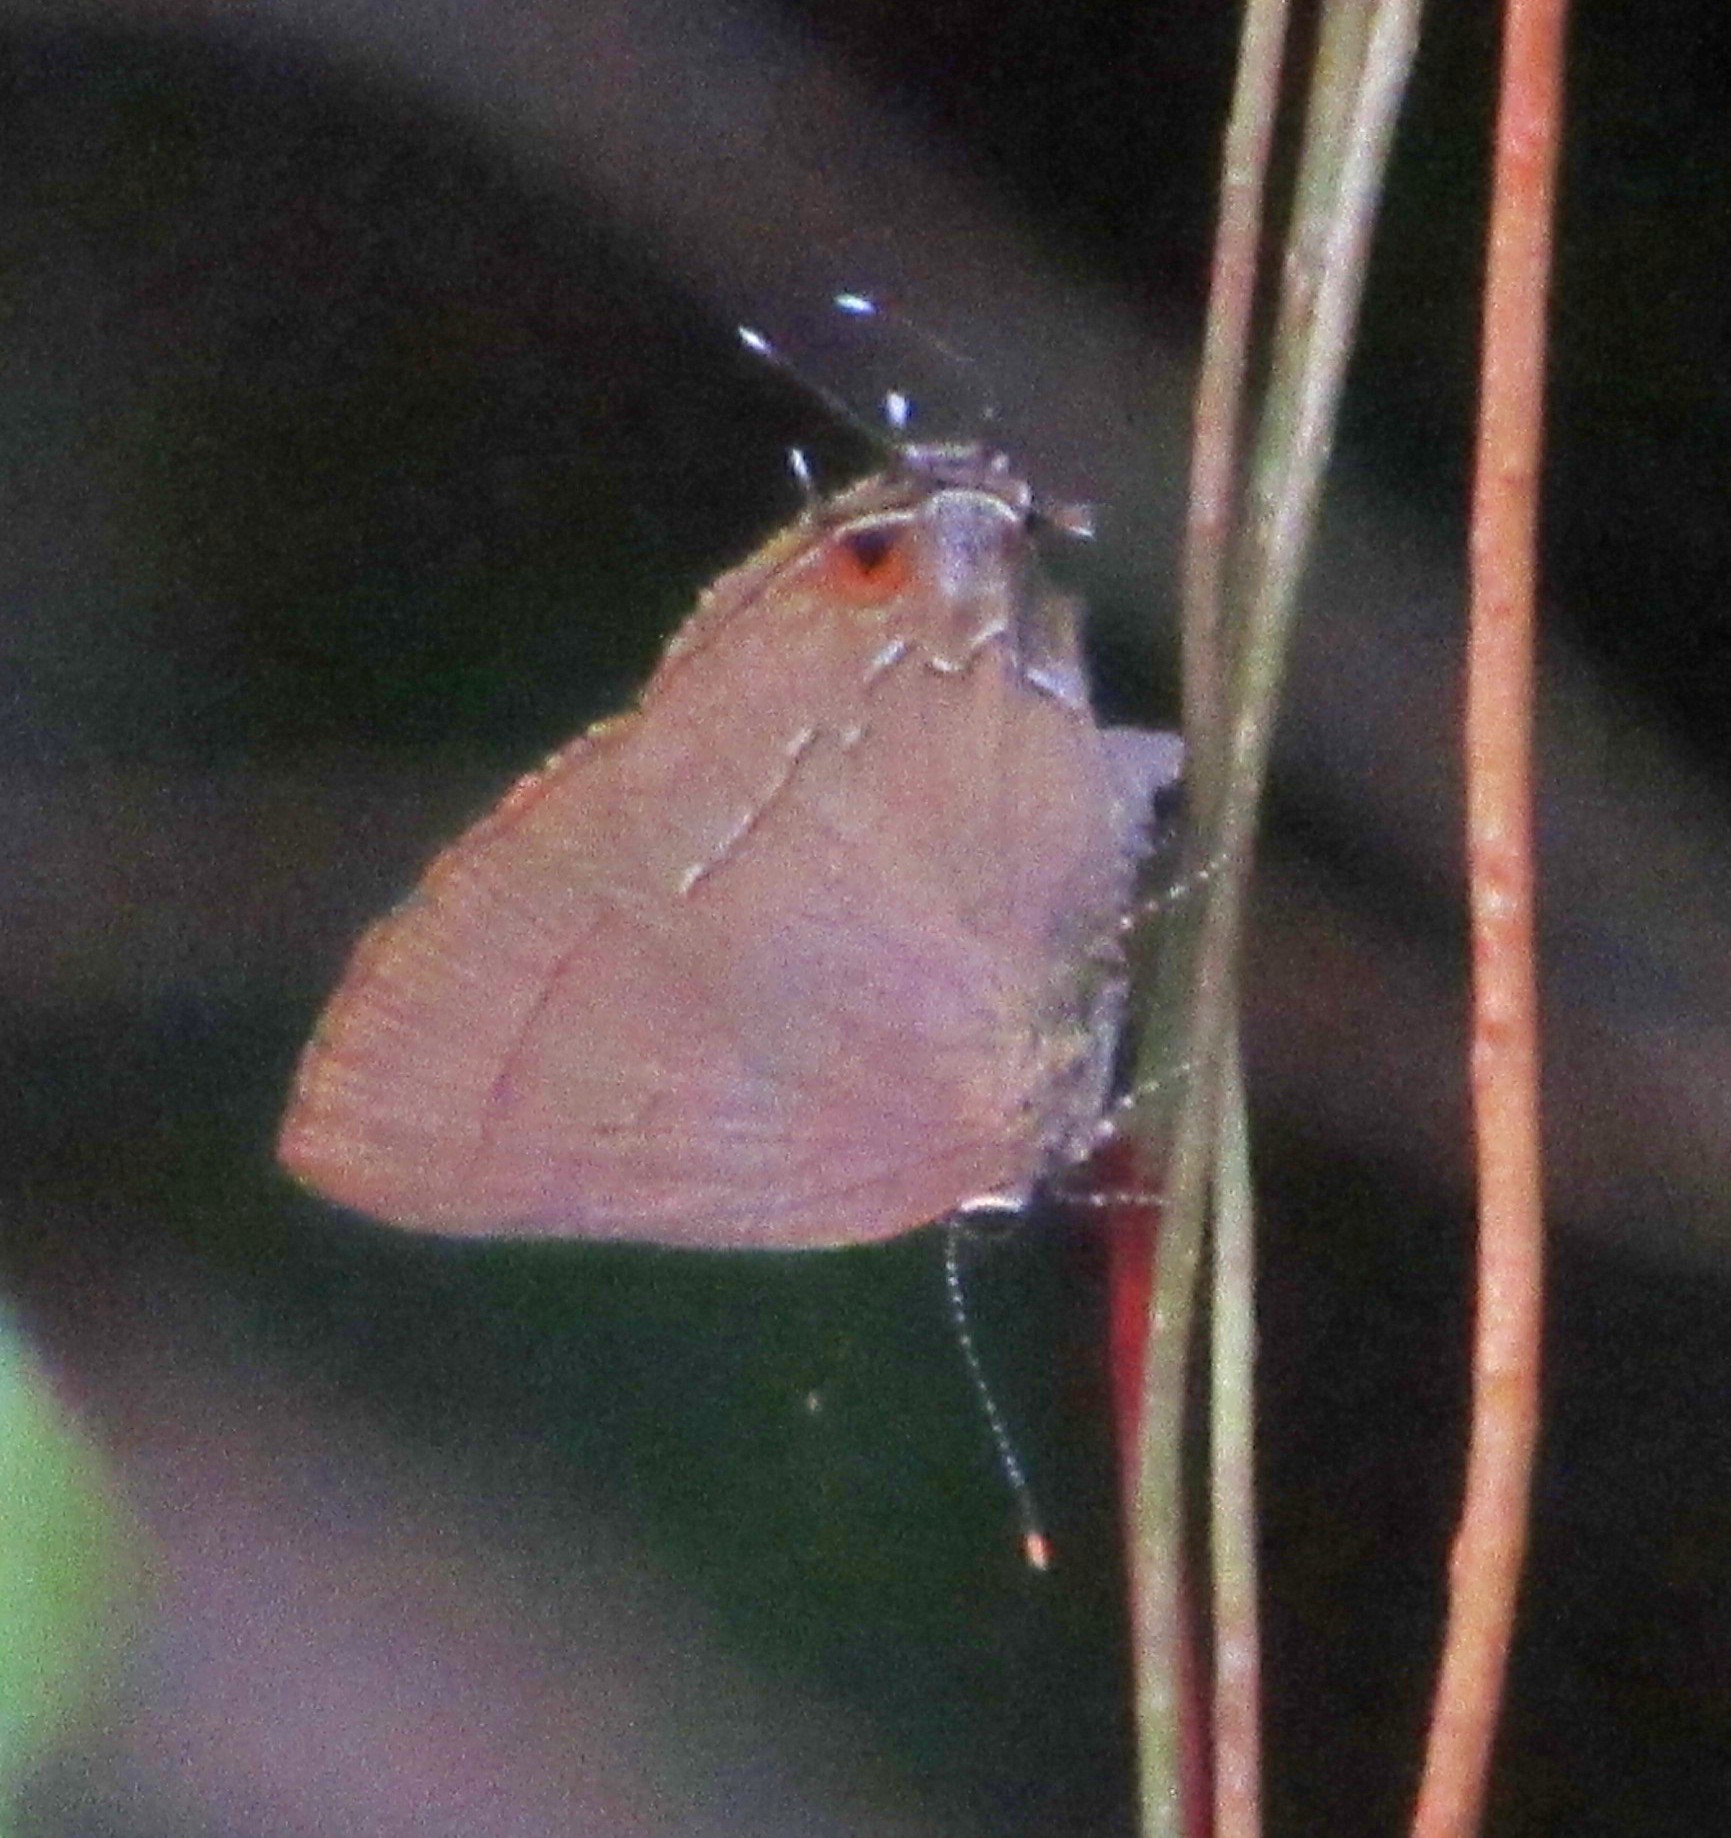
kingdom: Animalia
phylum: Arthropoda
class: Insecta
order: Lepidoptera
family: Lycaenidae
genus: Ziegleria
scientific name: Ziegleria hesperitis
